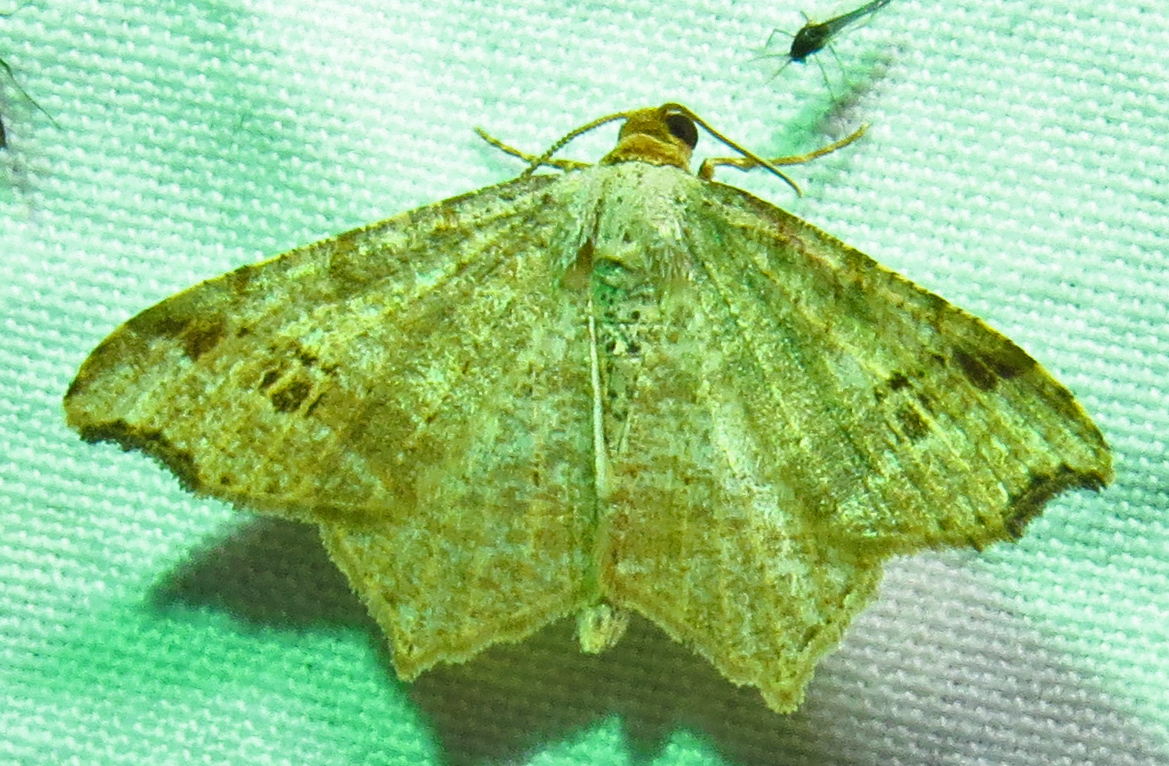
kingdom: Animalia
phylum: Arthropoda
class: Insecta
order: Lepidoptera
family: Geometridae
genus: Macaria
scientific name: Macaria promiscuata
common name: Promiscuous angle
